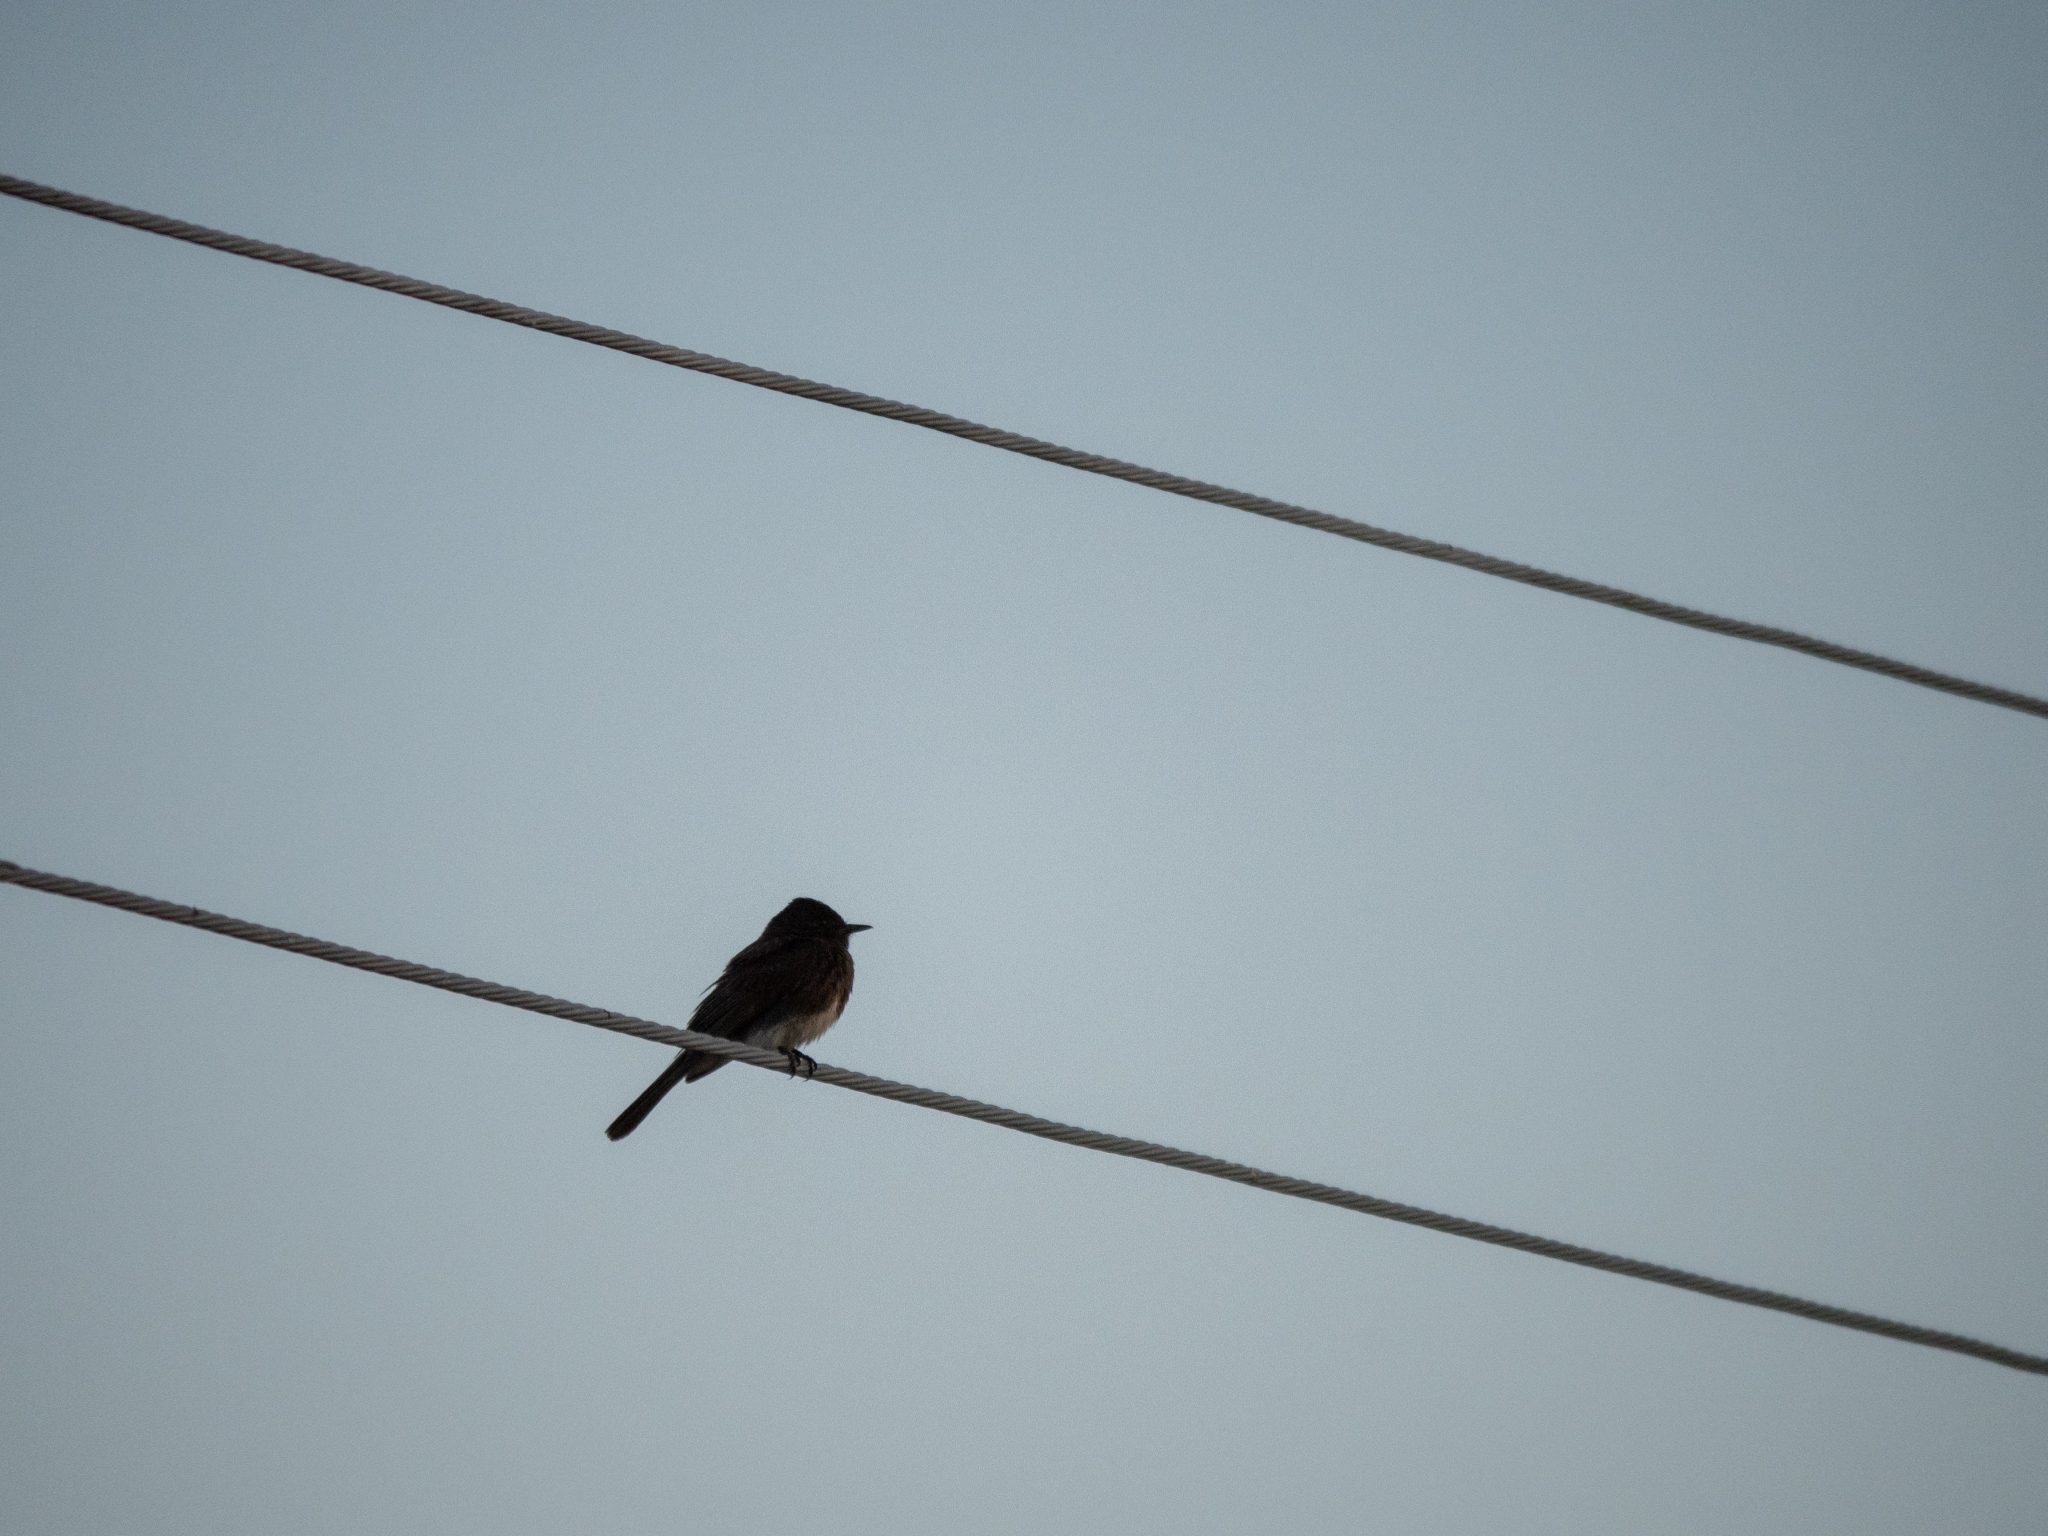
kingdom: Animalia
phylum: Chordata
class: Aves
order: Passeriformes
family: Tyrannidae
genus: Sayornis
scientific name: Sayornis nigricans
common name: Black phoebe
